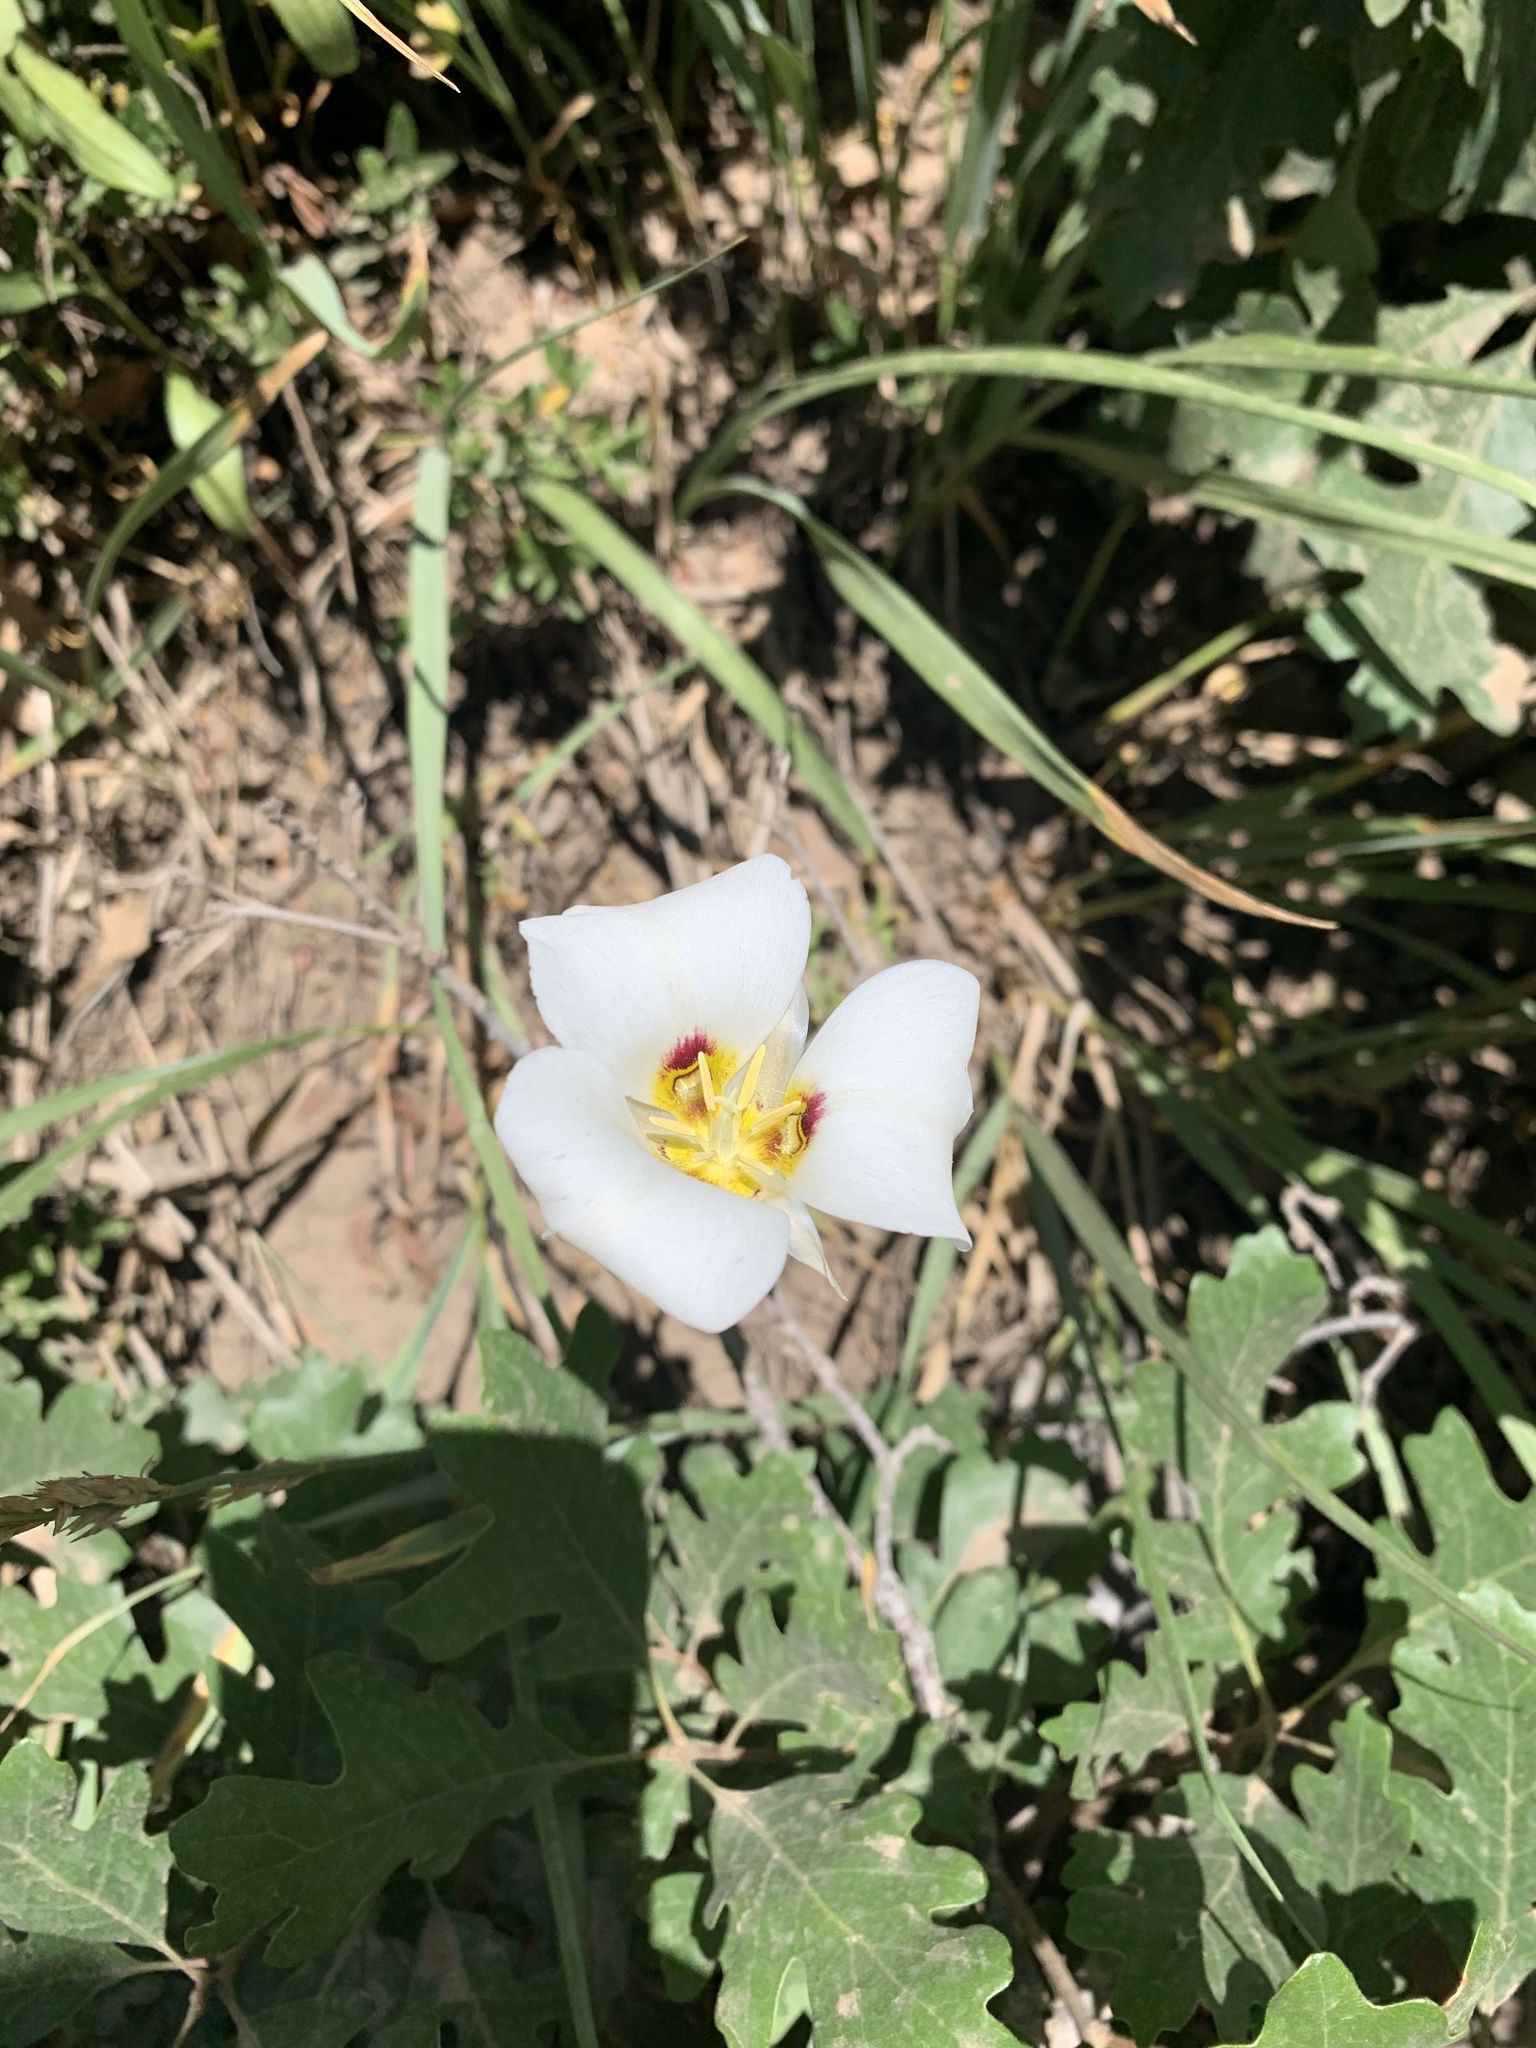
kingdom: Plantae
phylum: Tracheophyta
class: Liliopsida
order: Liliales
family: Liliaceae
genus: Calochortus
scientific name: Calochortus nuttallii
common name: Sego-lily
